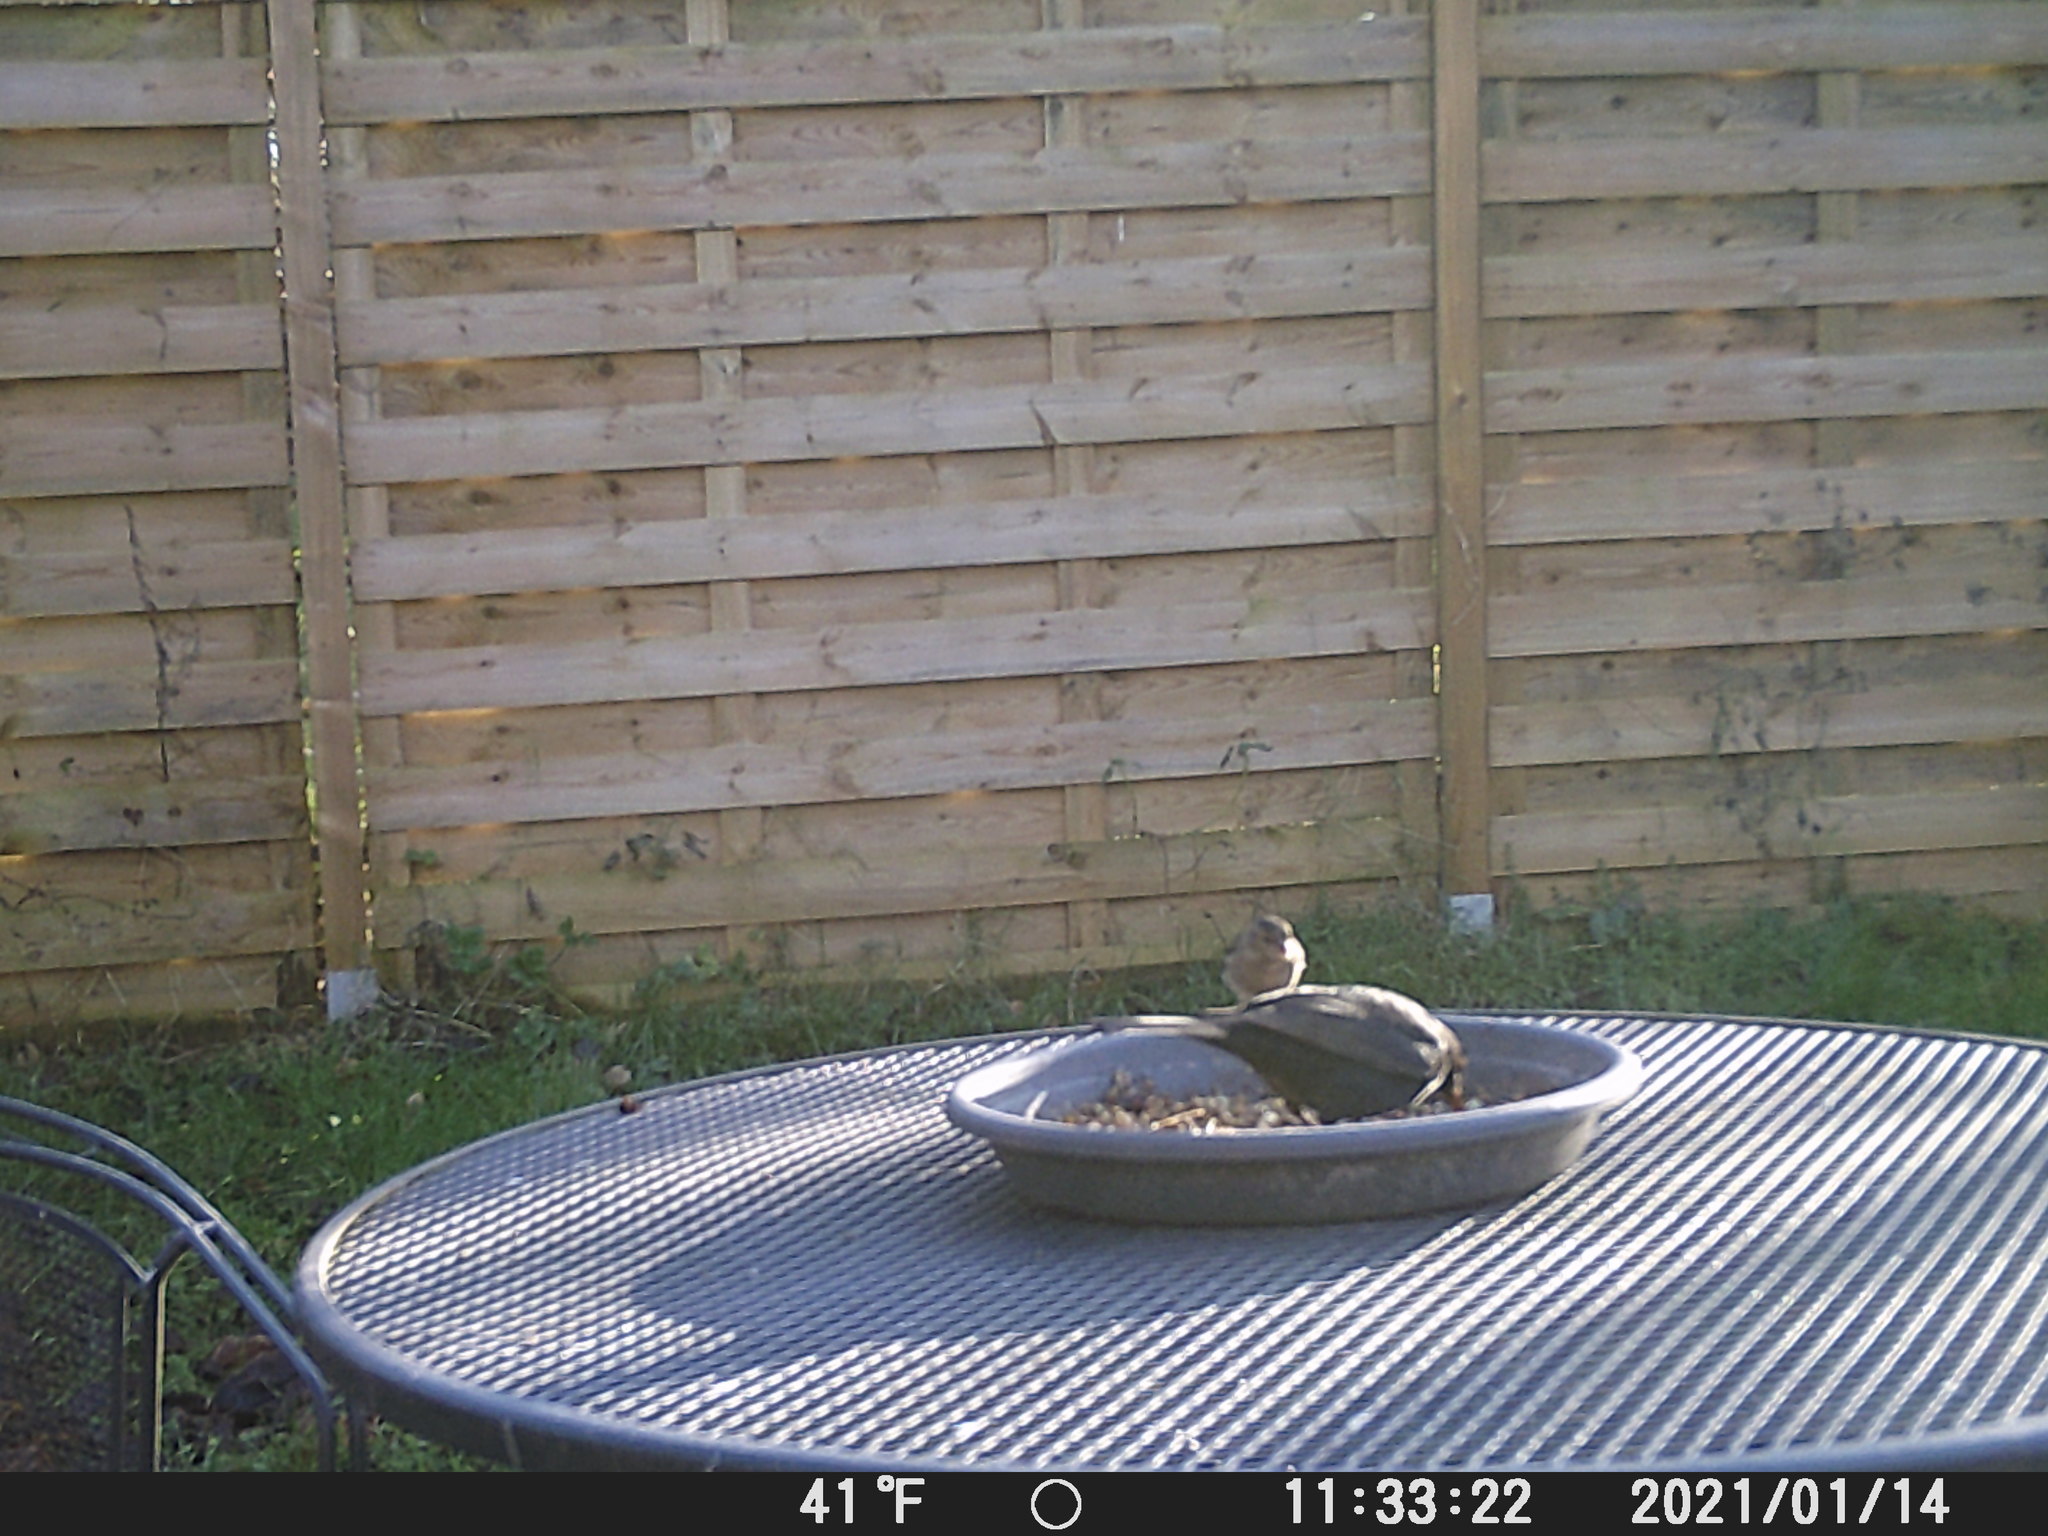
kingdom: Animalia
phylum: Chordata
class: Aves
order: Passeriformes
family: Fringillidae
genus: Fringilla
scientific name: Fringilla coelebs
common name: Common chaffinch
